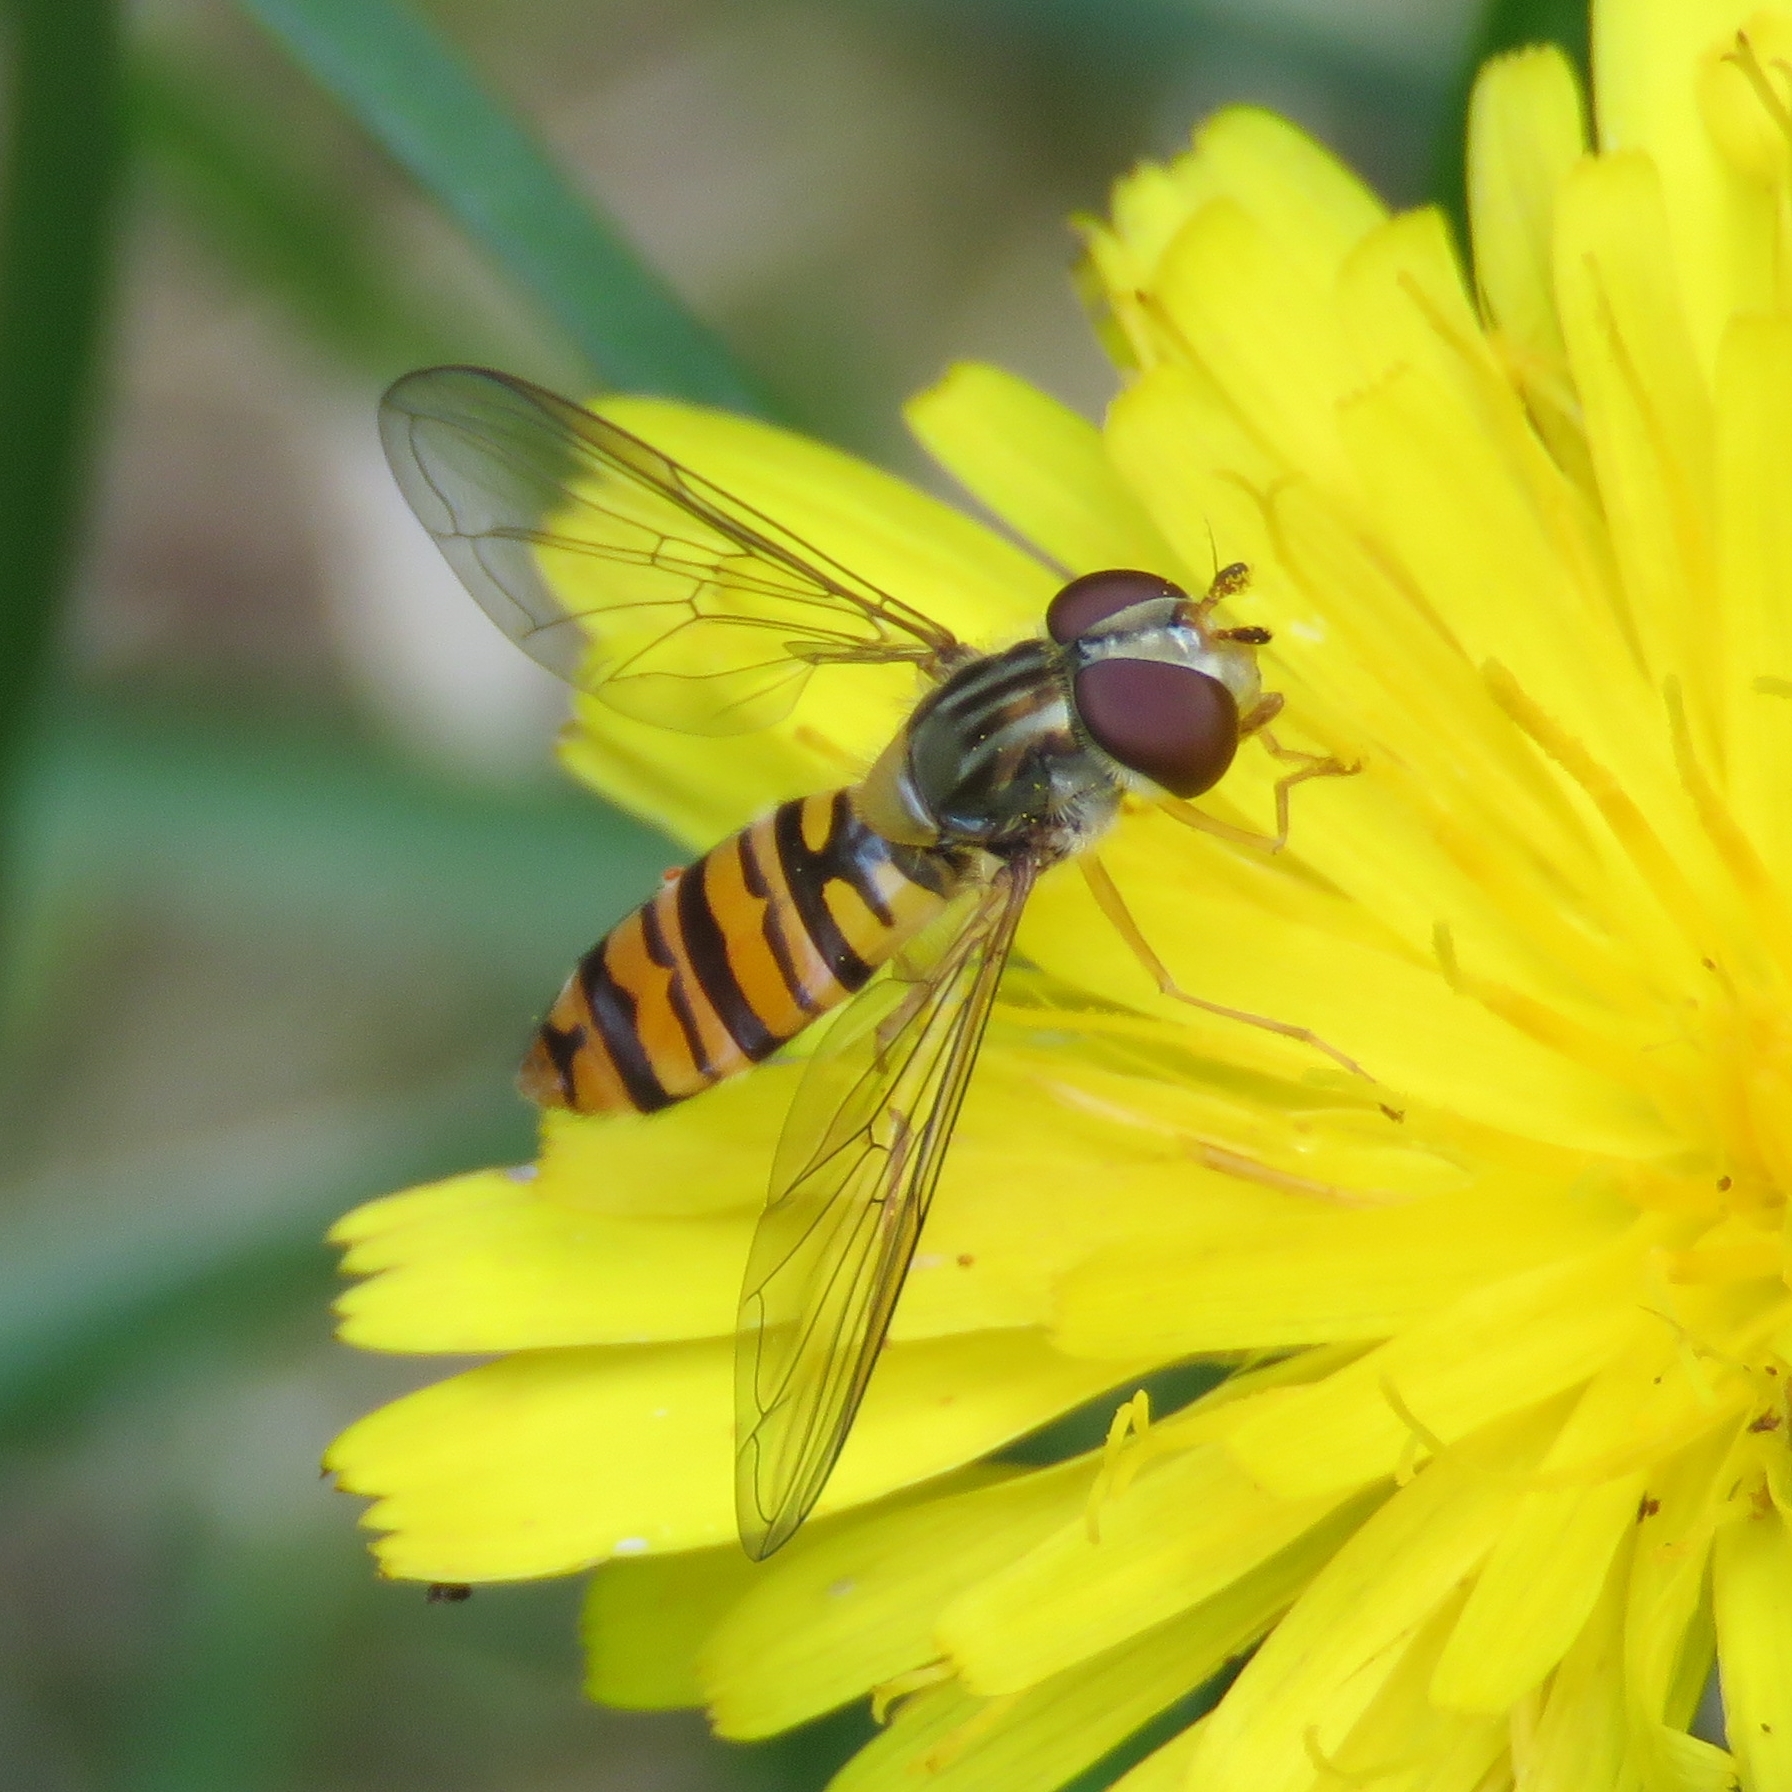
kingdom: Animalia
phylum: Arthropoda
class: Insecta
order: Diptera
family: Syrphidae
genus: Episyrphus
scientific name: Episyrphus balteatus
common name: Marmalade hoverfly
